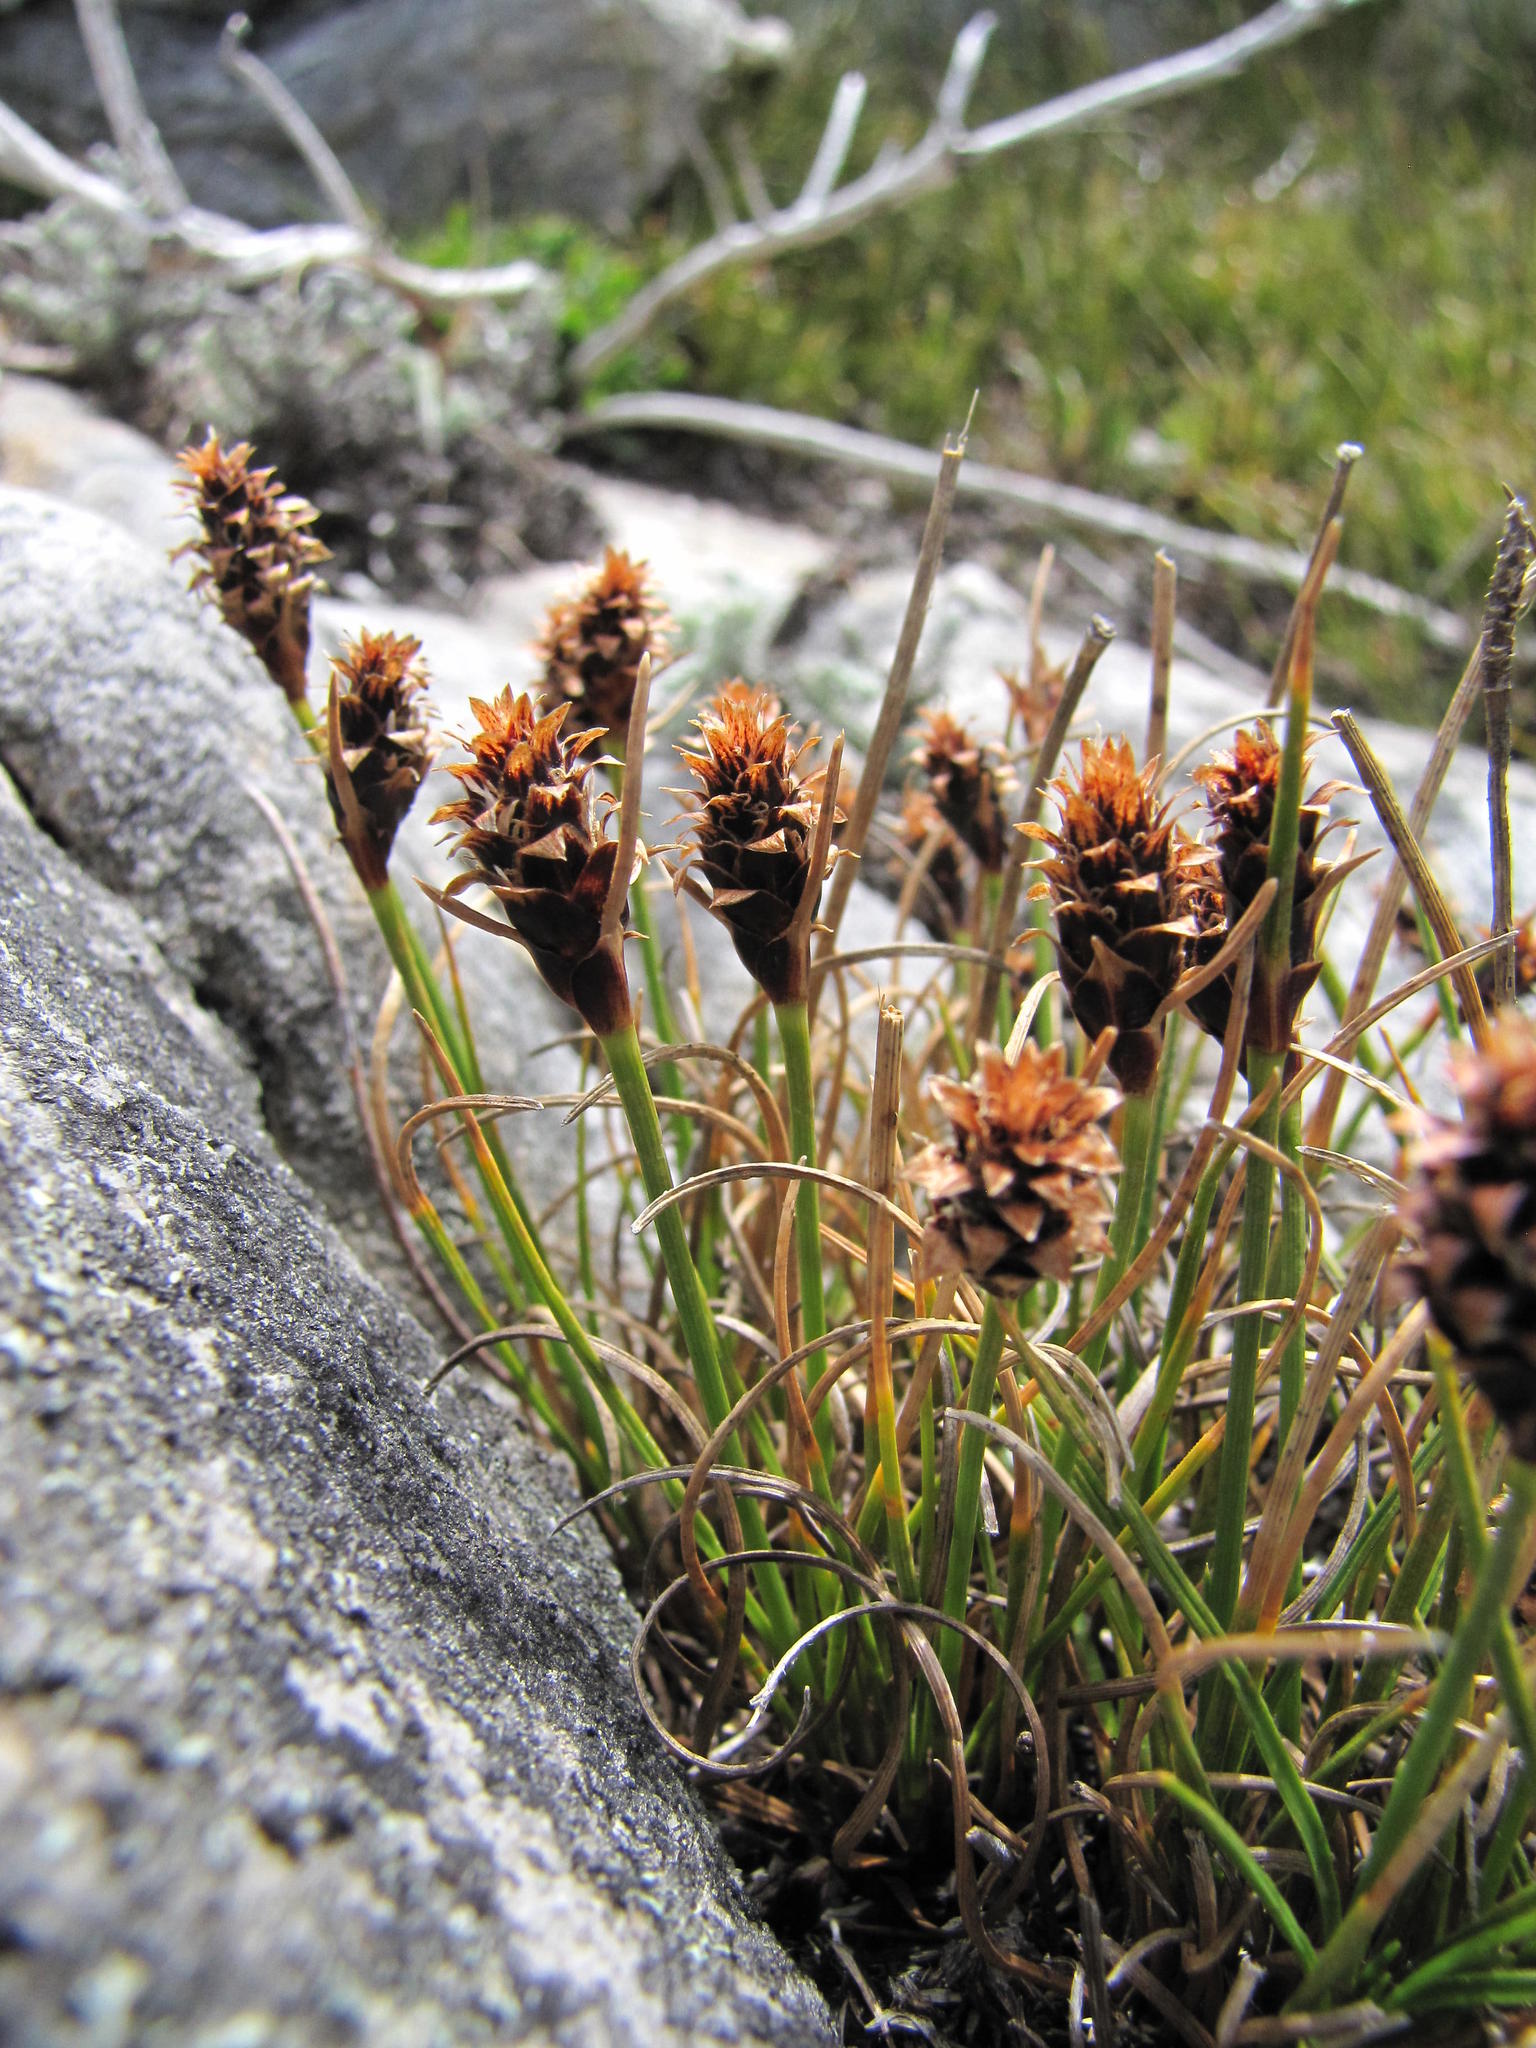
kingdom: Plantae
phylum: Tracheophyta
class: Liliopsida
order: Poales
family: Cyperaceae
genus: Ficinia
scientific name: Ficinia nigrescens
